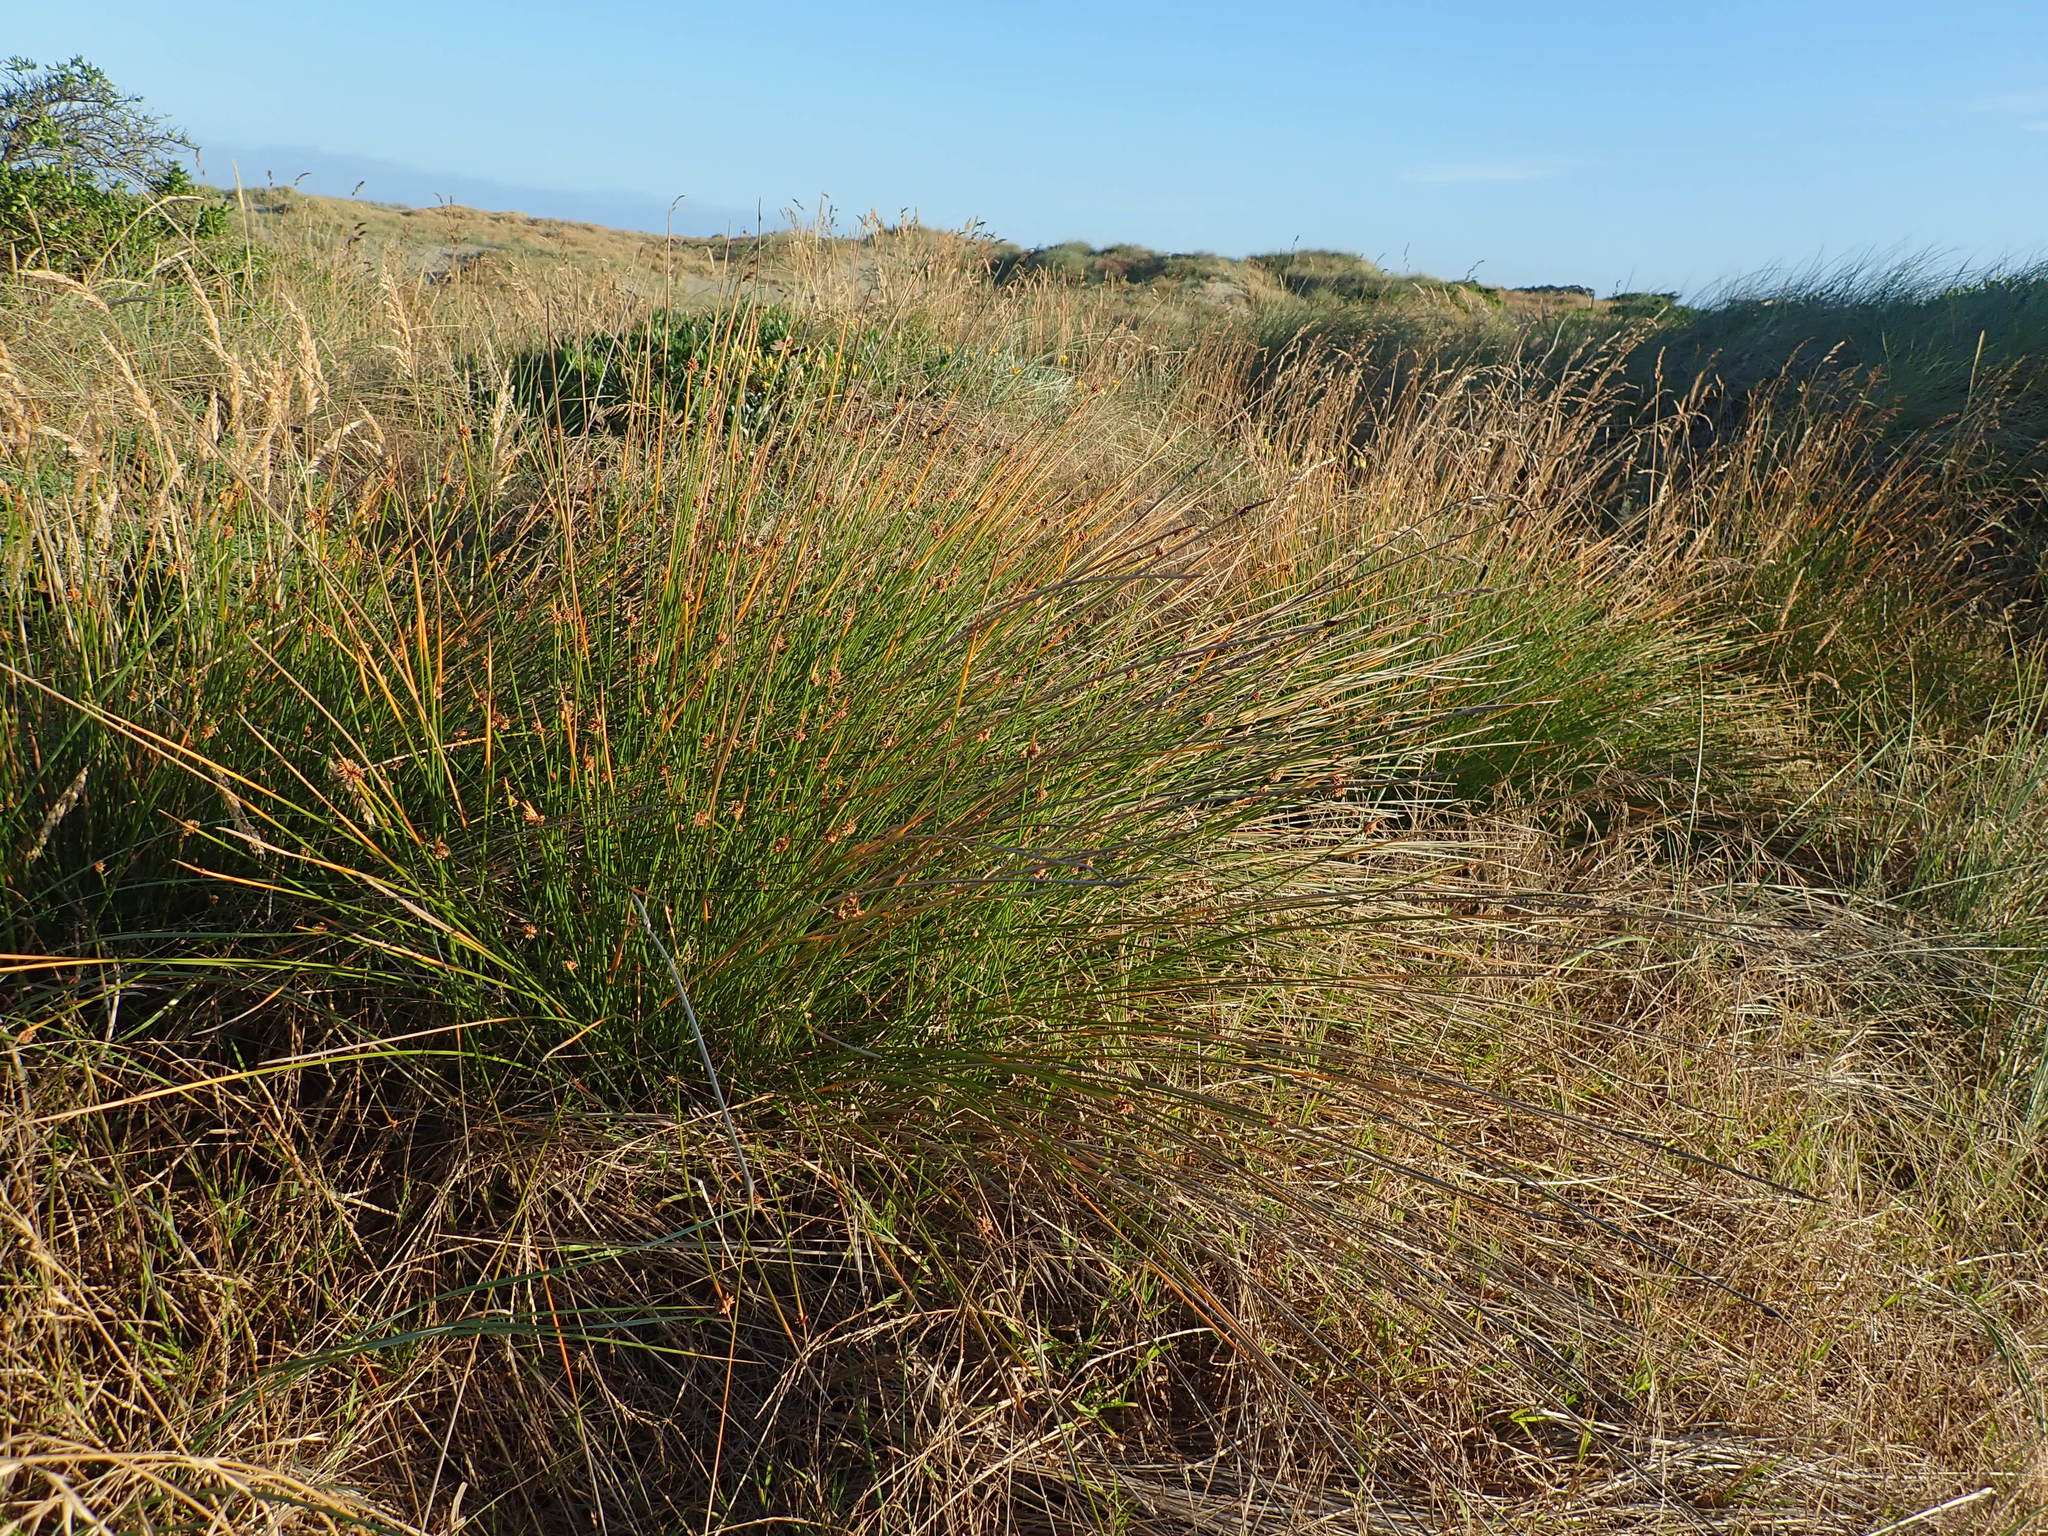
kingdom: Plantae
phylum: Tracheophyta
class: Liliopsida
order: Poales
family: Cyperaceae
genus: Ficinia
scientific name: Ficinia nodosa
